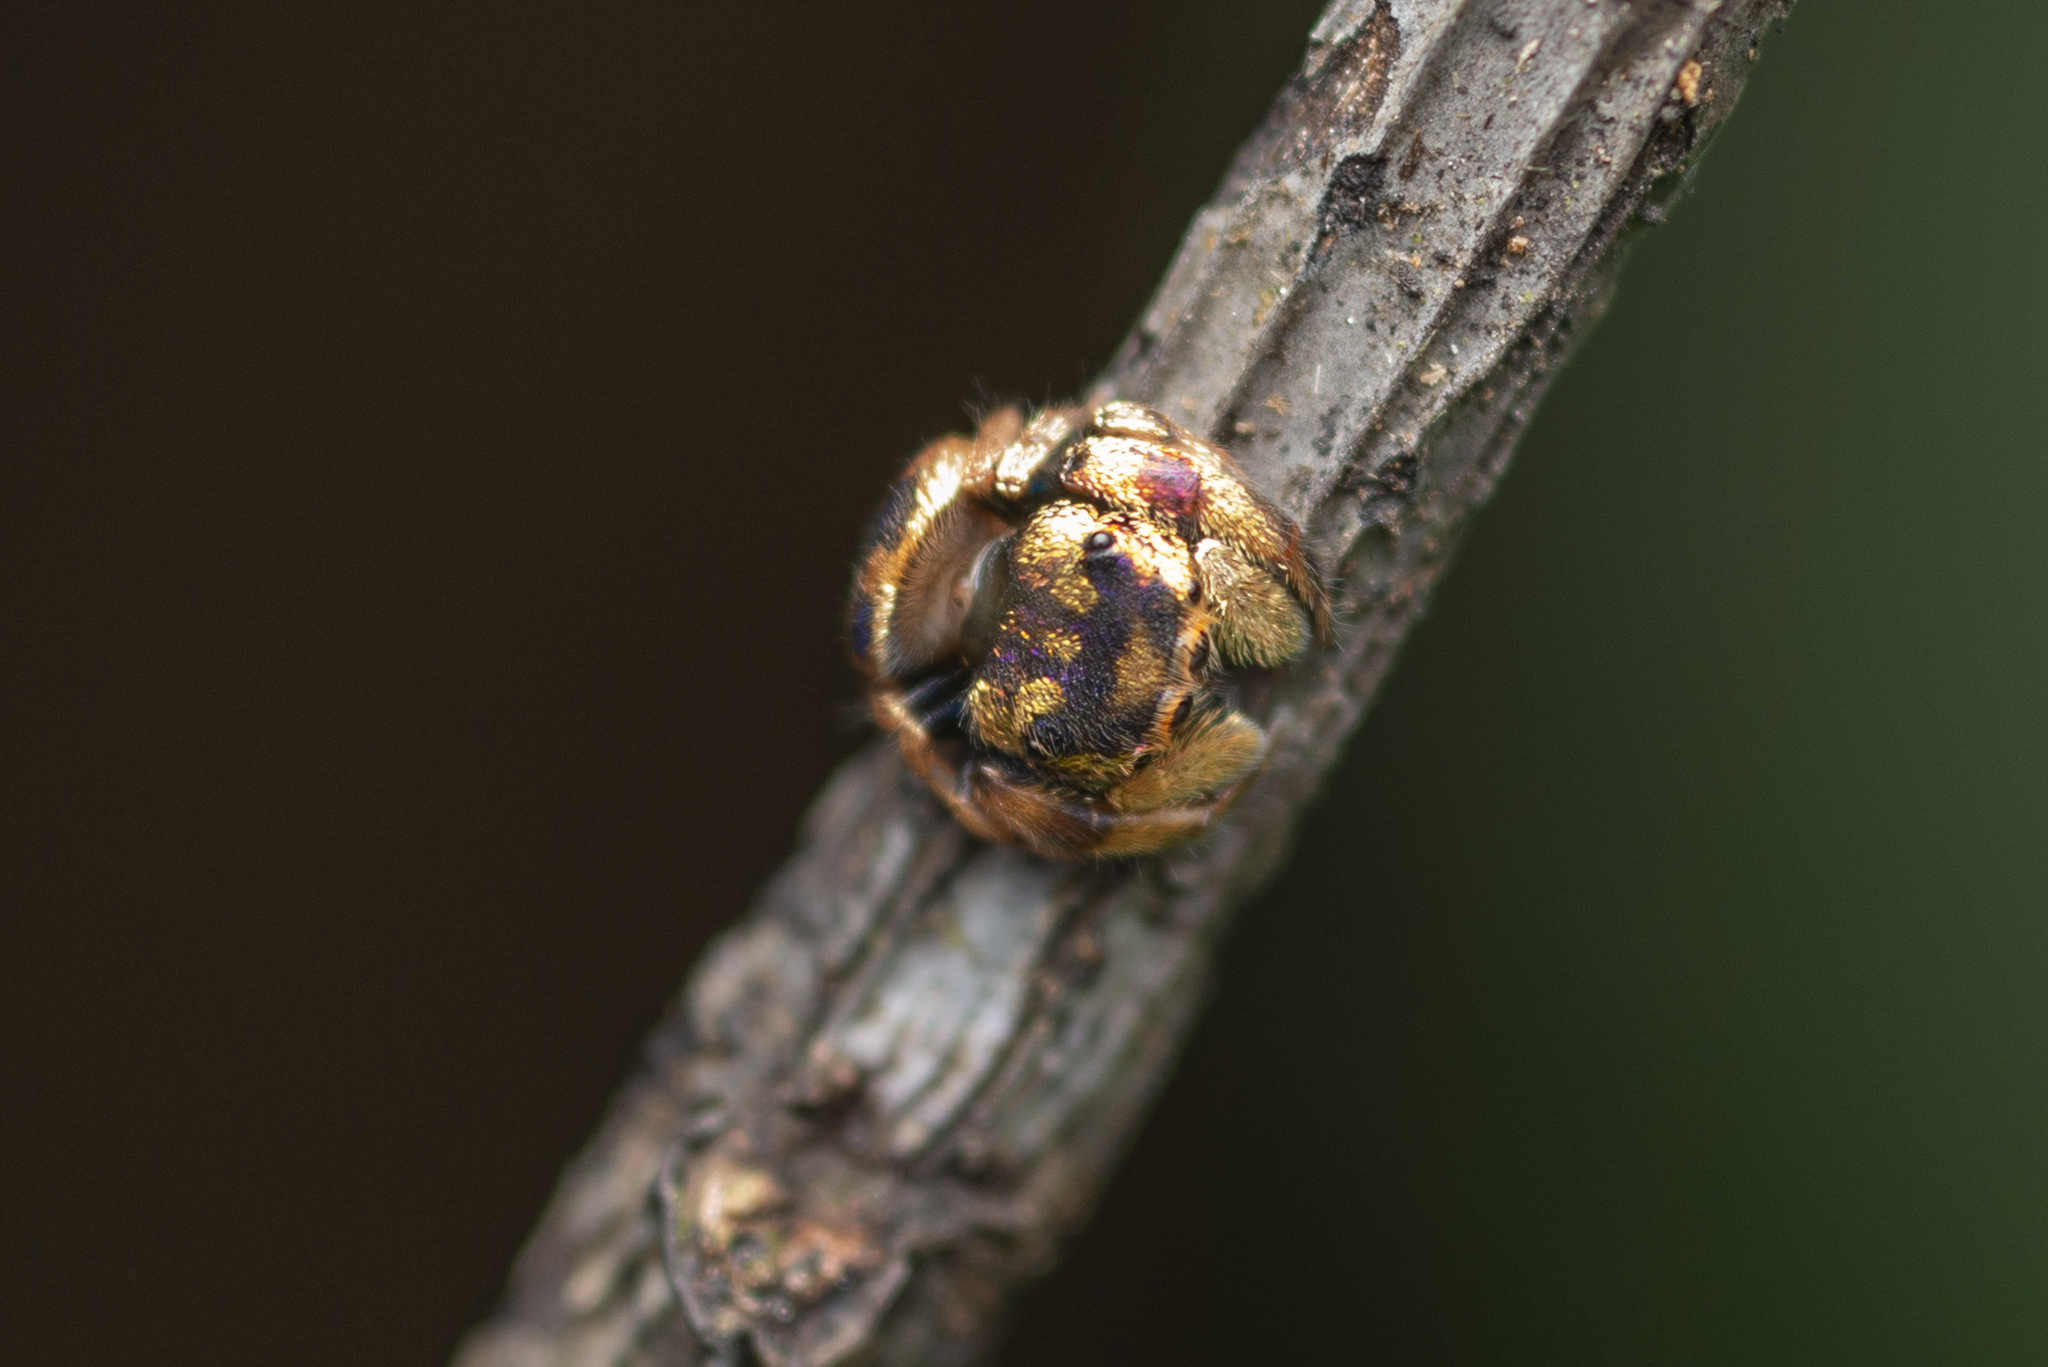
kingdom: Animalia
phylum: Arthropoda
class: Arachnida
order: Araneae
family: Salticidae
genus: Irura
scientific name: Irura bidenticulata
